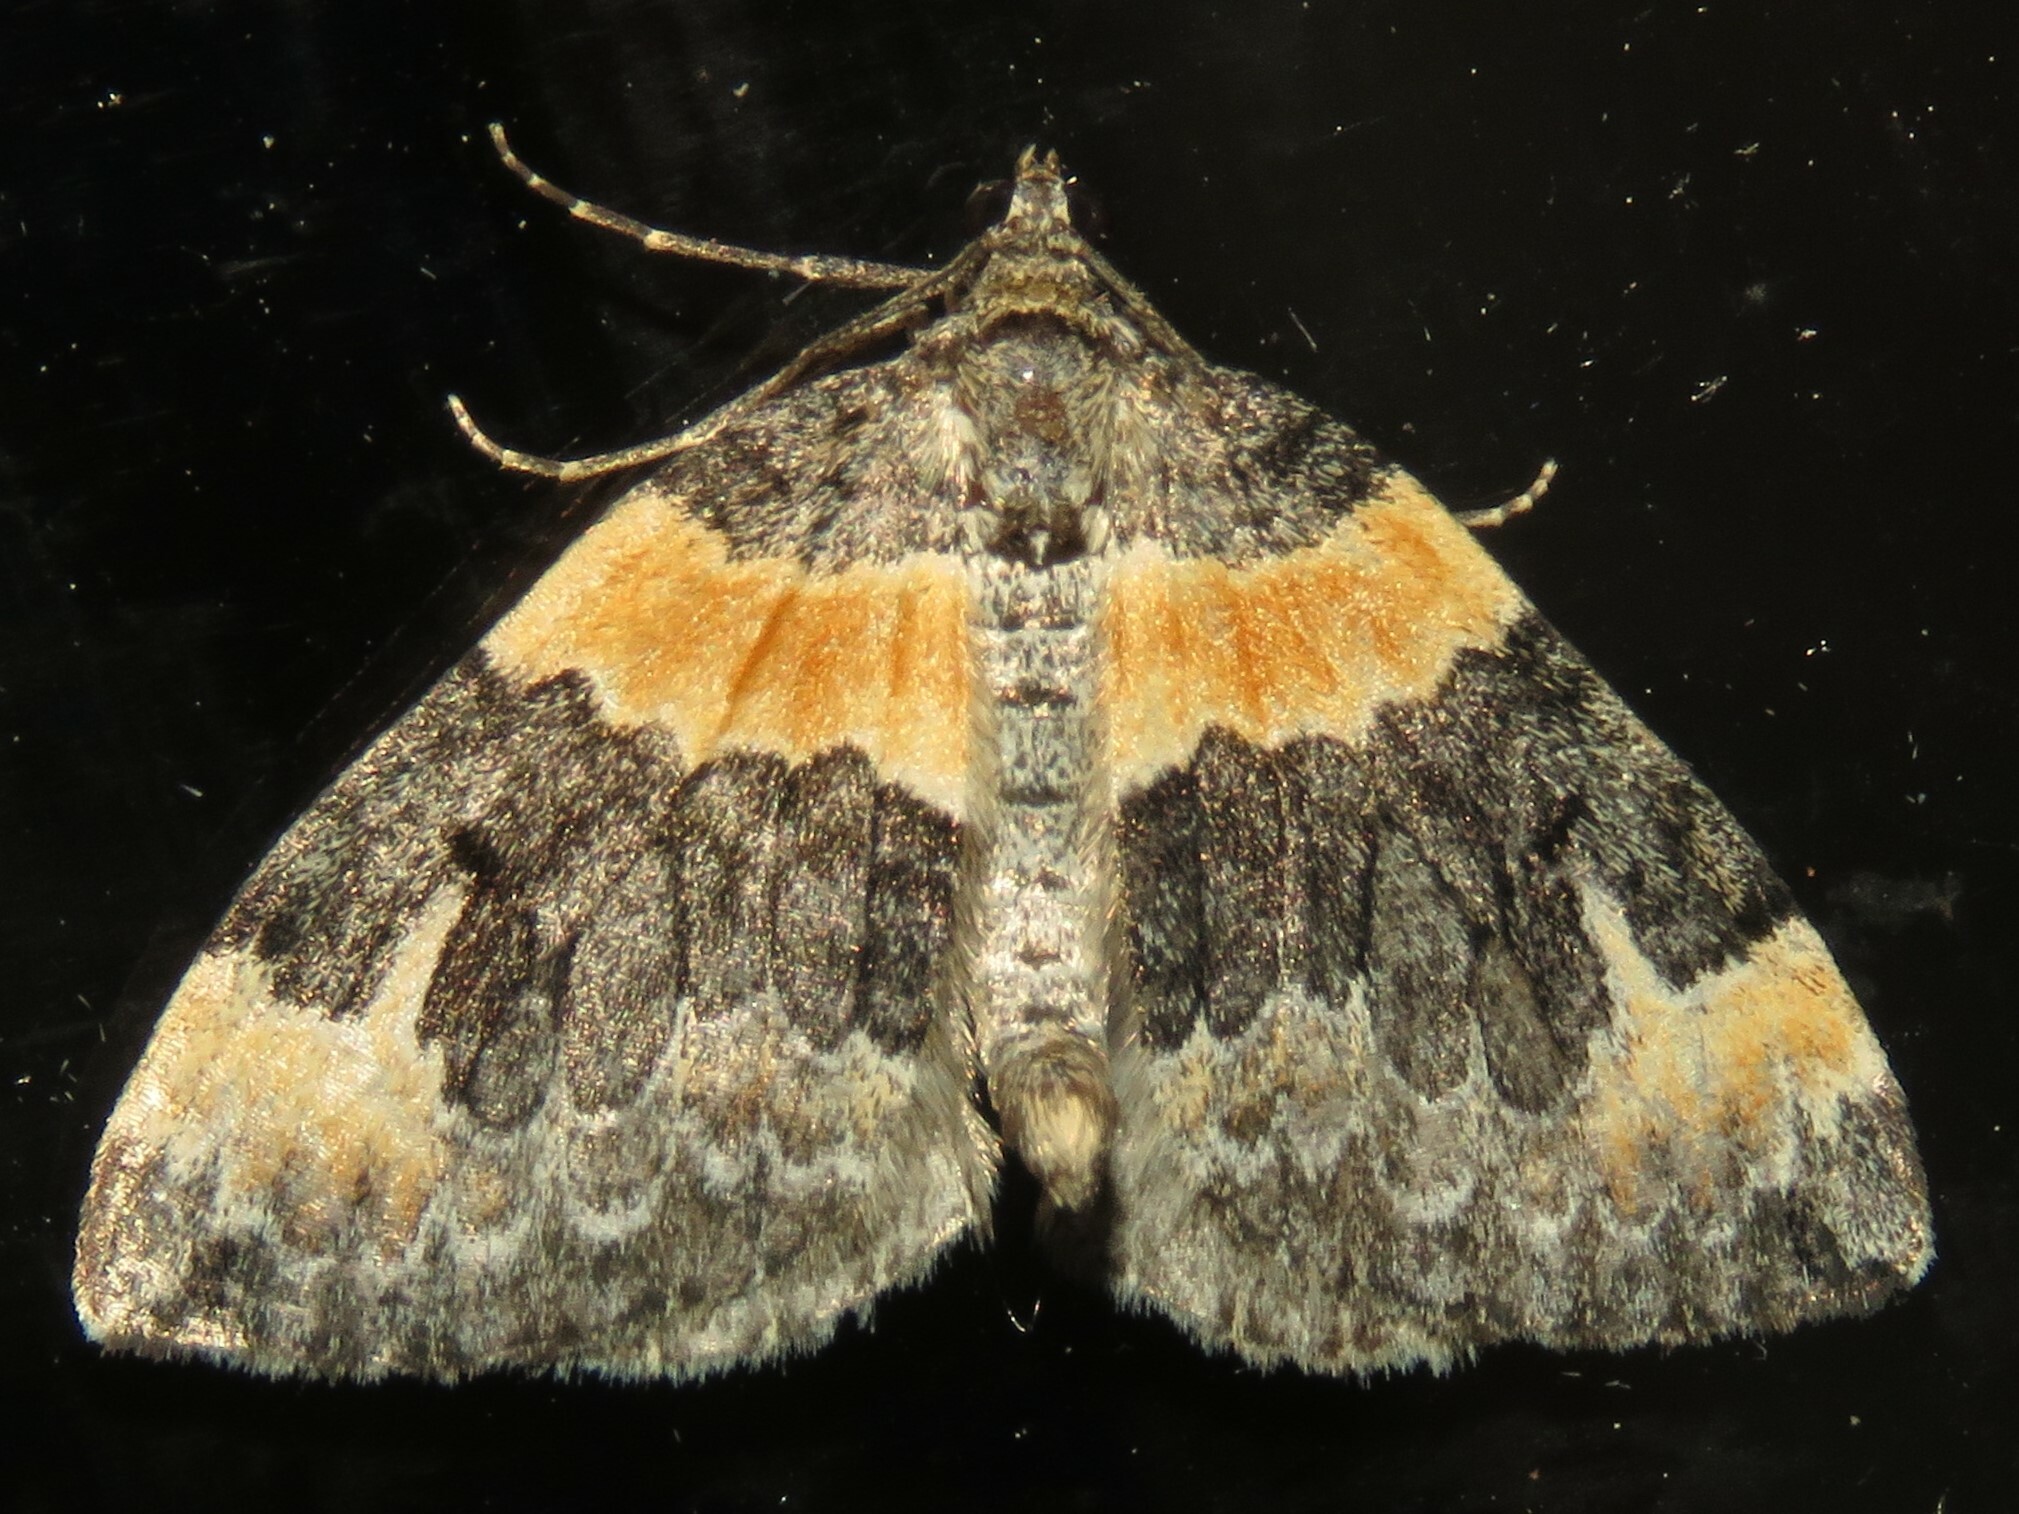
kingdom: Animalia
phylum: Arthropoda
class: Insecta
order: Lepidoptera
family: Geometridae
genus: Dysstroma
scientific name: Dysstroma hersiliata
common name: Orange-barred carpet
